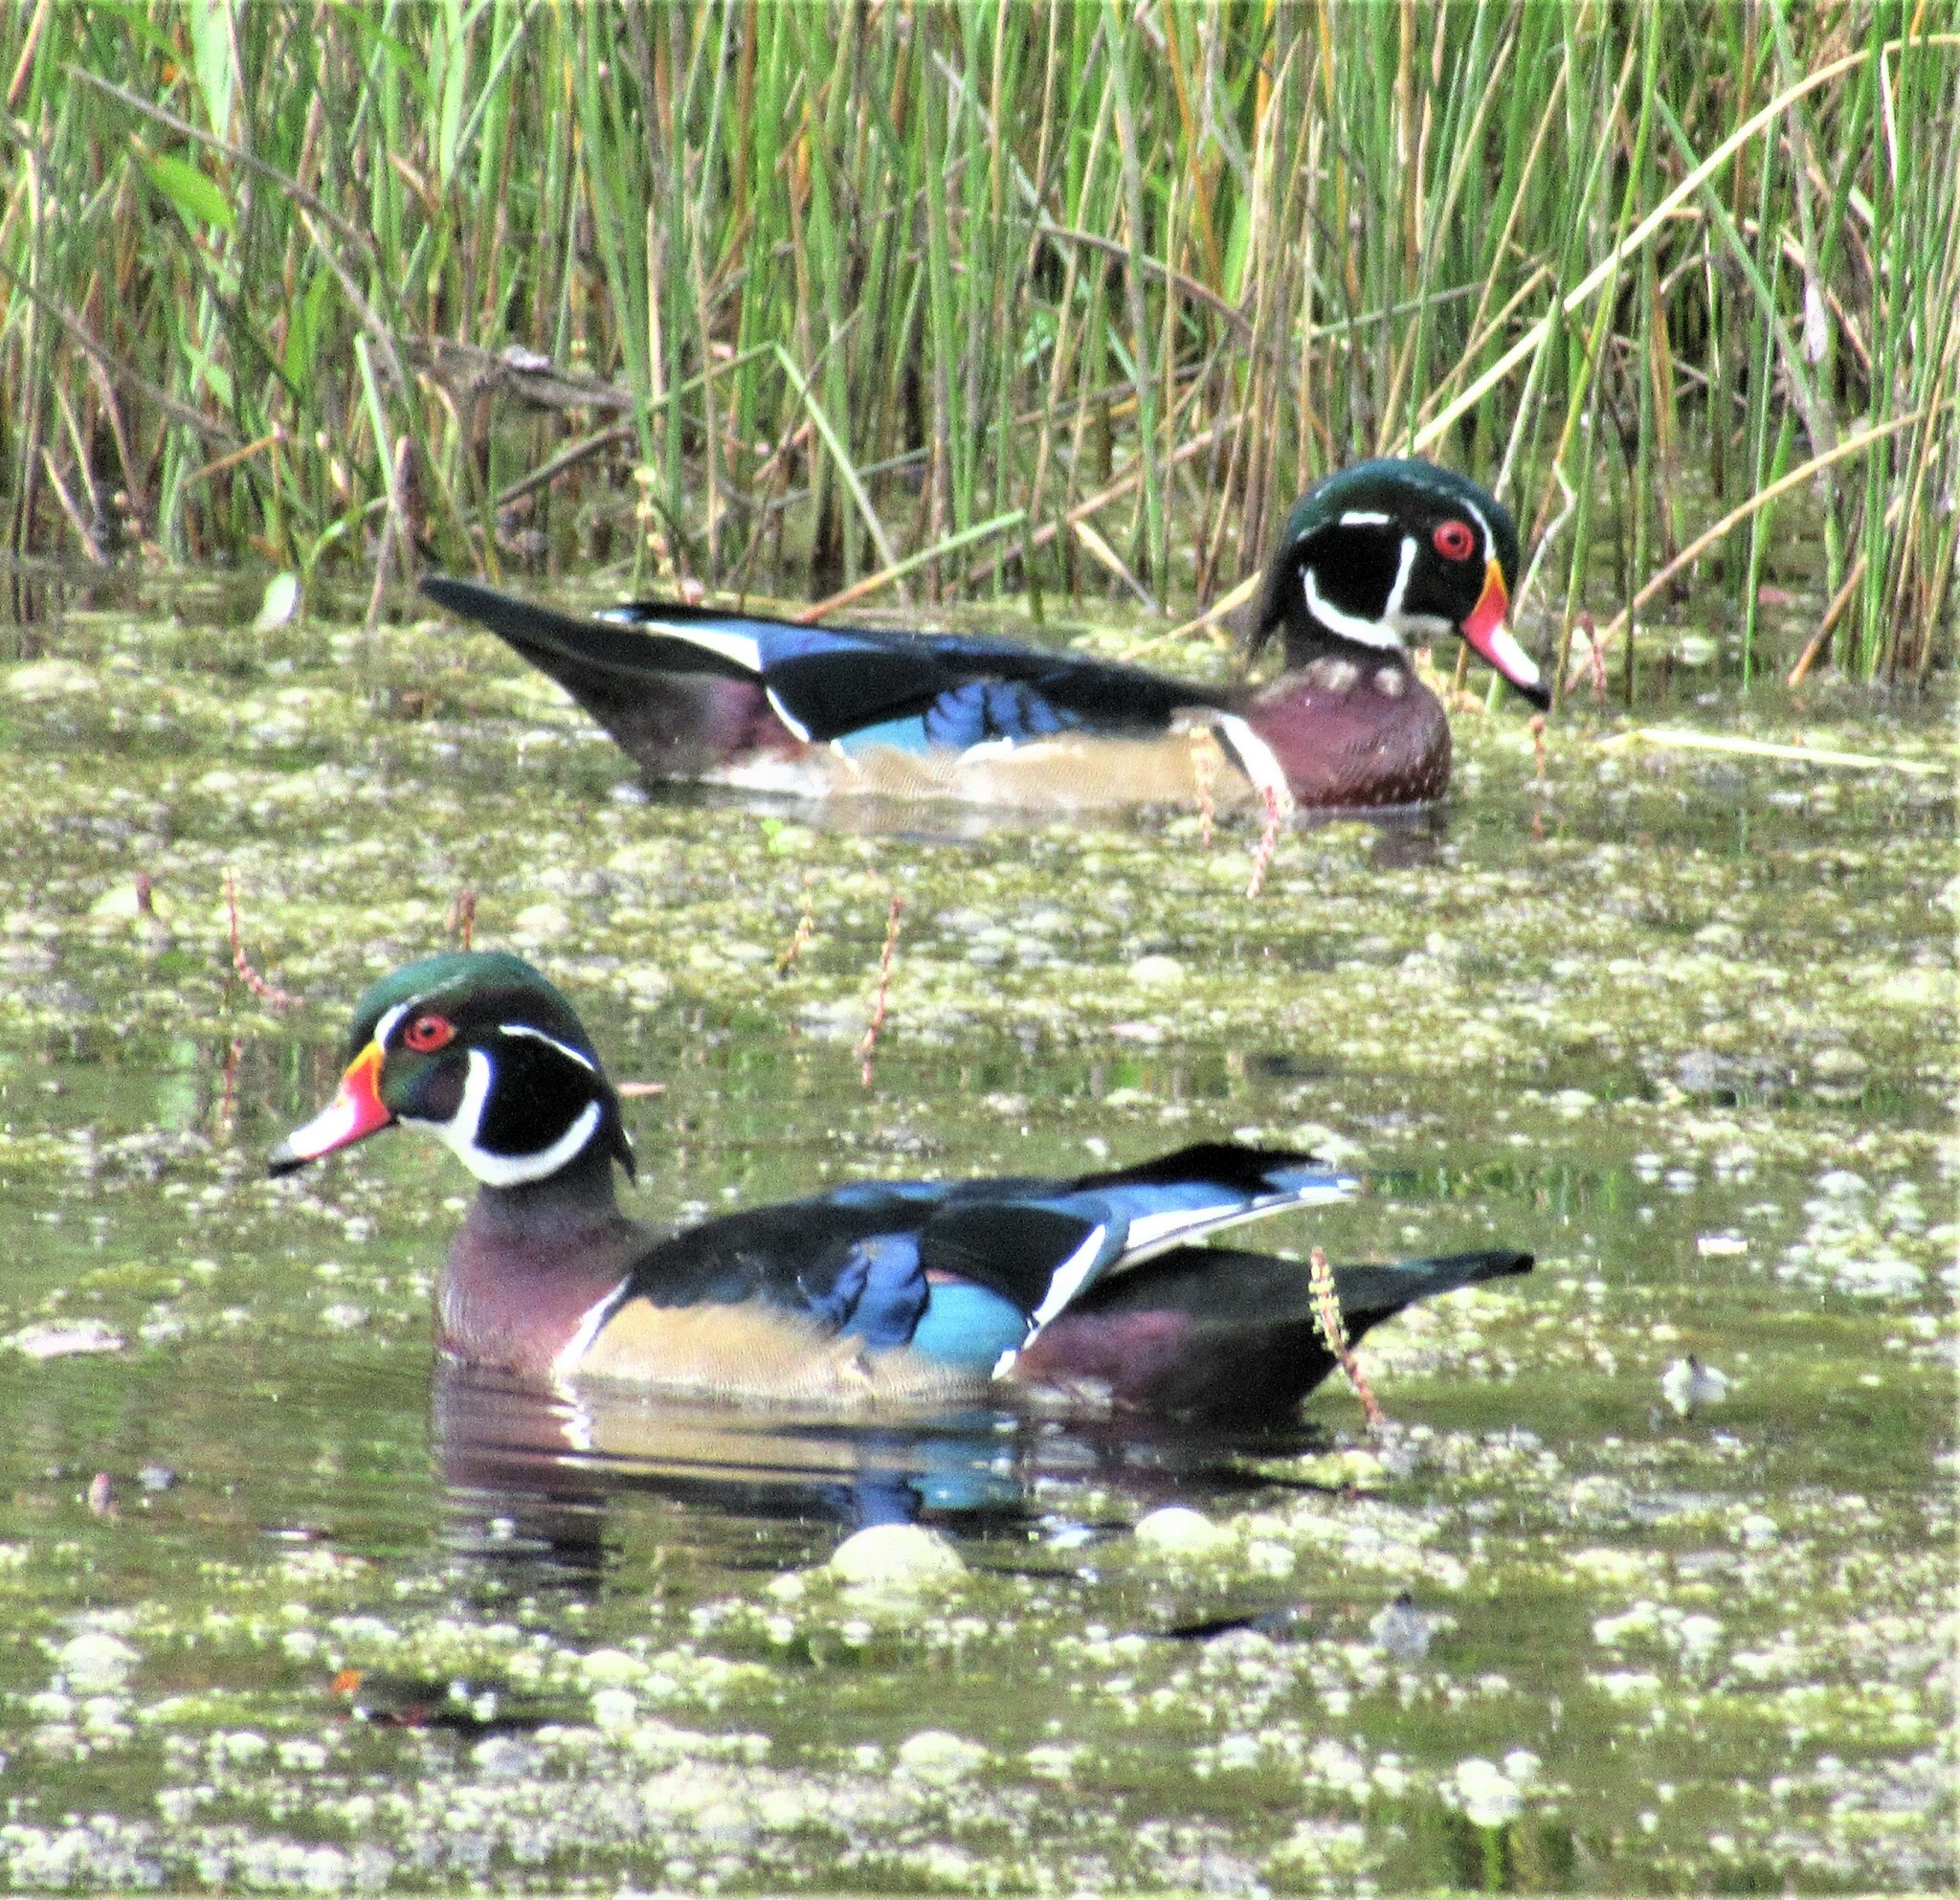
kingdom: Animalia
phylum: Chordata
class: Aves
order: Anseriformes
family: Anatidae
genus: Aix
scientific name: Aix sponsa
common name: Wood duck
